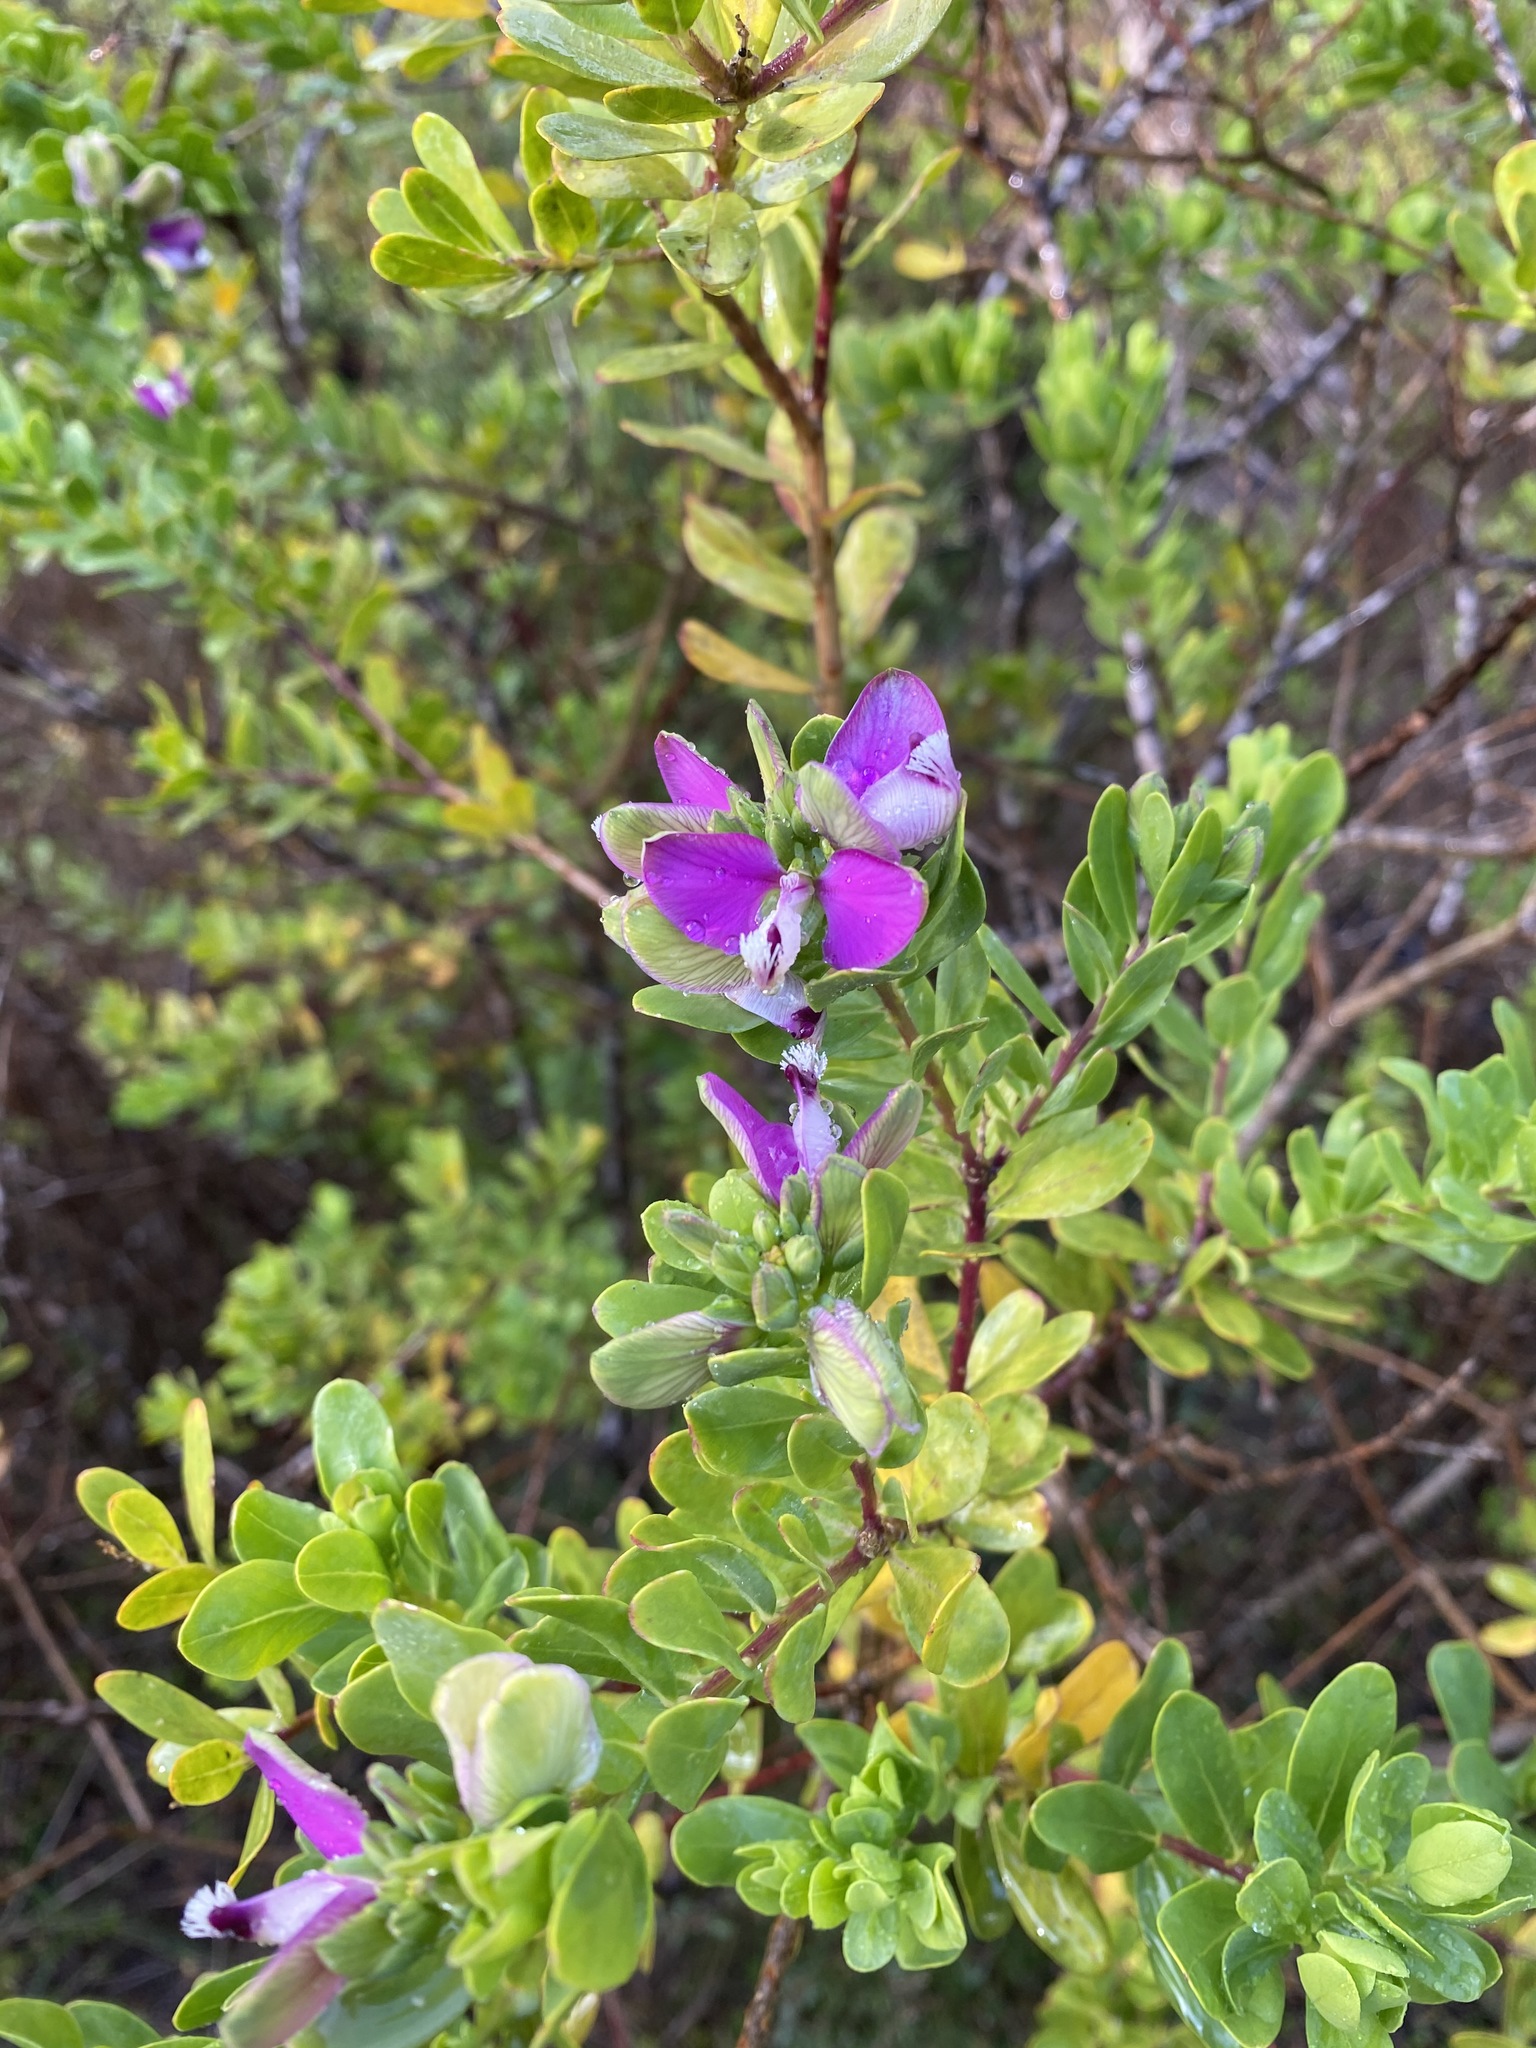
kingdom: Plantae
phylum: Tracheophyta
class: Magnoliopsida
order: Fabales
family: Polygalaceae
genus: Polygala
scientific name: Polygala myrtifolia
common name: Myrtle-leaf milkwort
